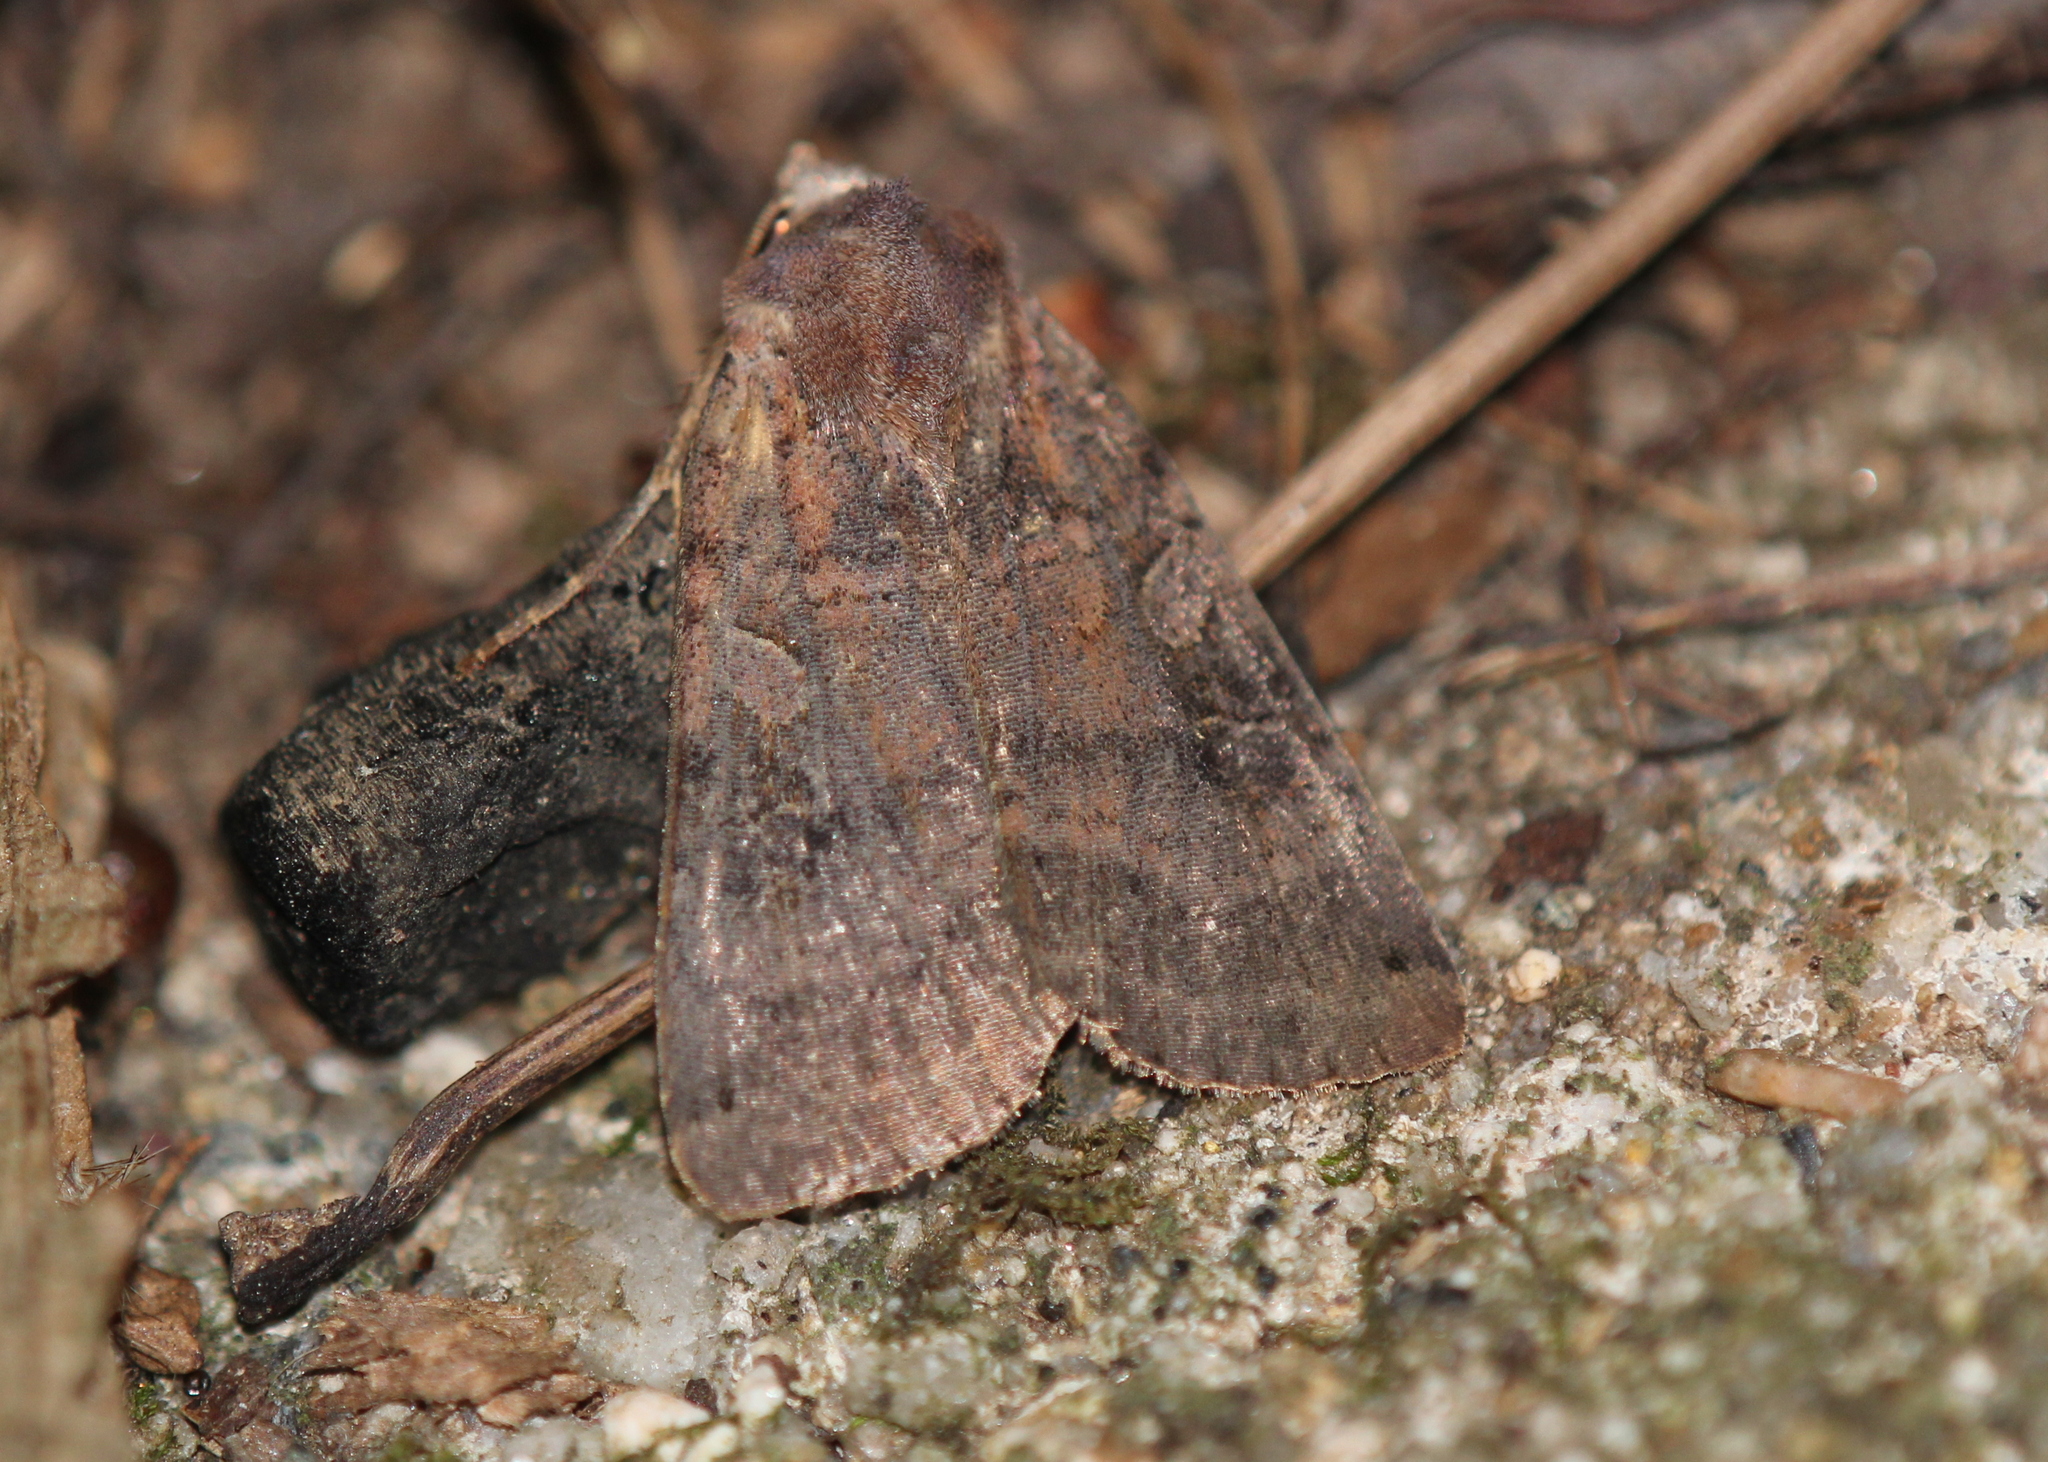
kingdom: Animalia
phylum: Arthropoda
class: Insecta
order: Lepidoptera
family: Noctuidae
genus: Xestia
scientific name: Xestia smithii
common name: Smith's dart
